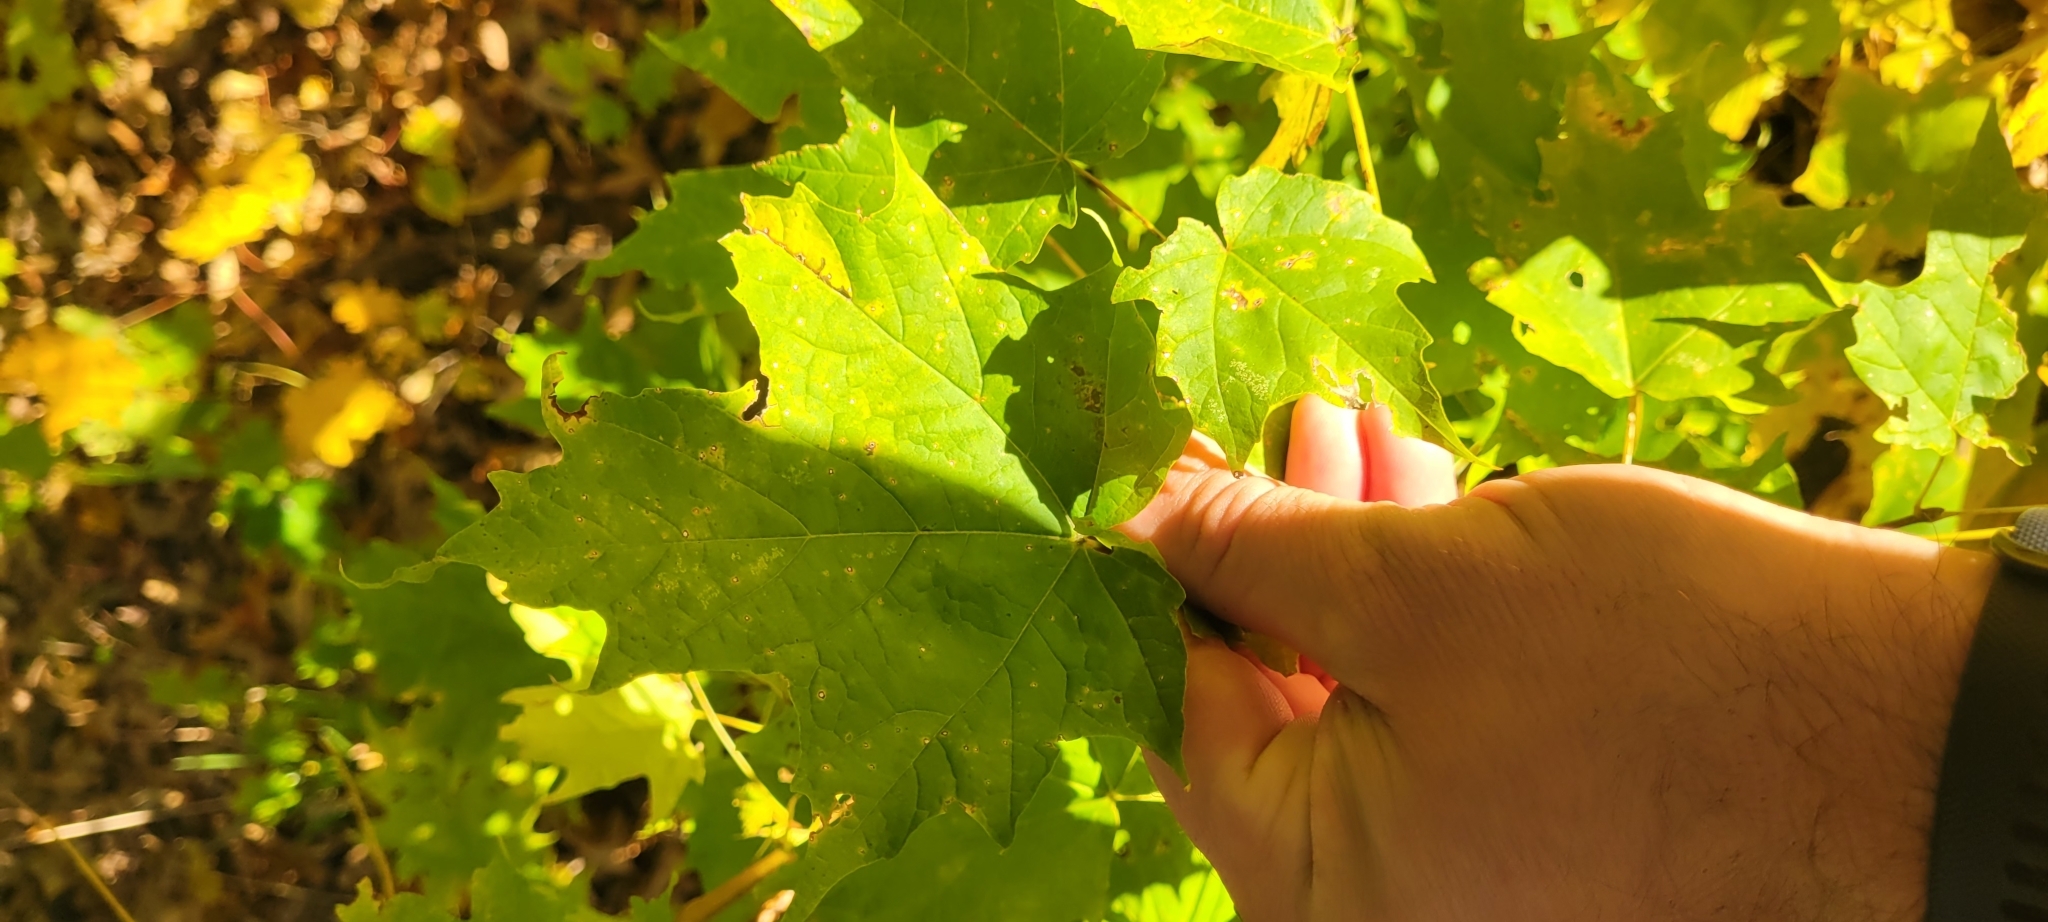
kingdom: Plantae
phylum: Tracheophyta
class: Magnoliopsida
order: Sapindales
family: Sapindaceae
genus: Acer
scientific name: Acer saccharum
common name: Sugar maple
